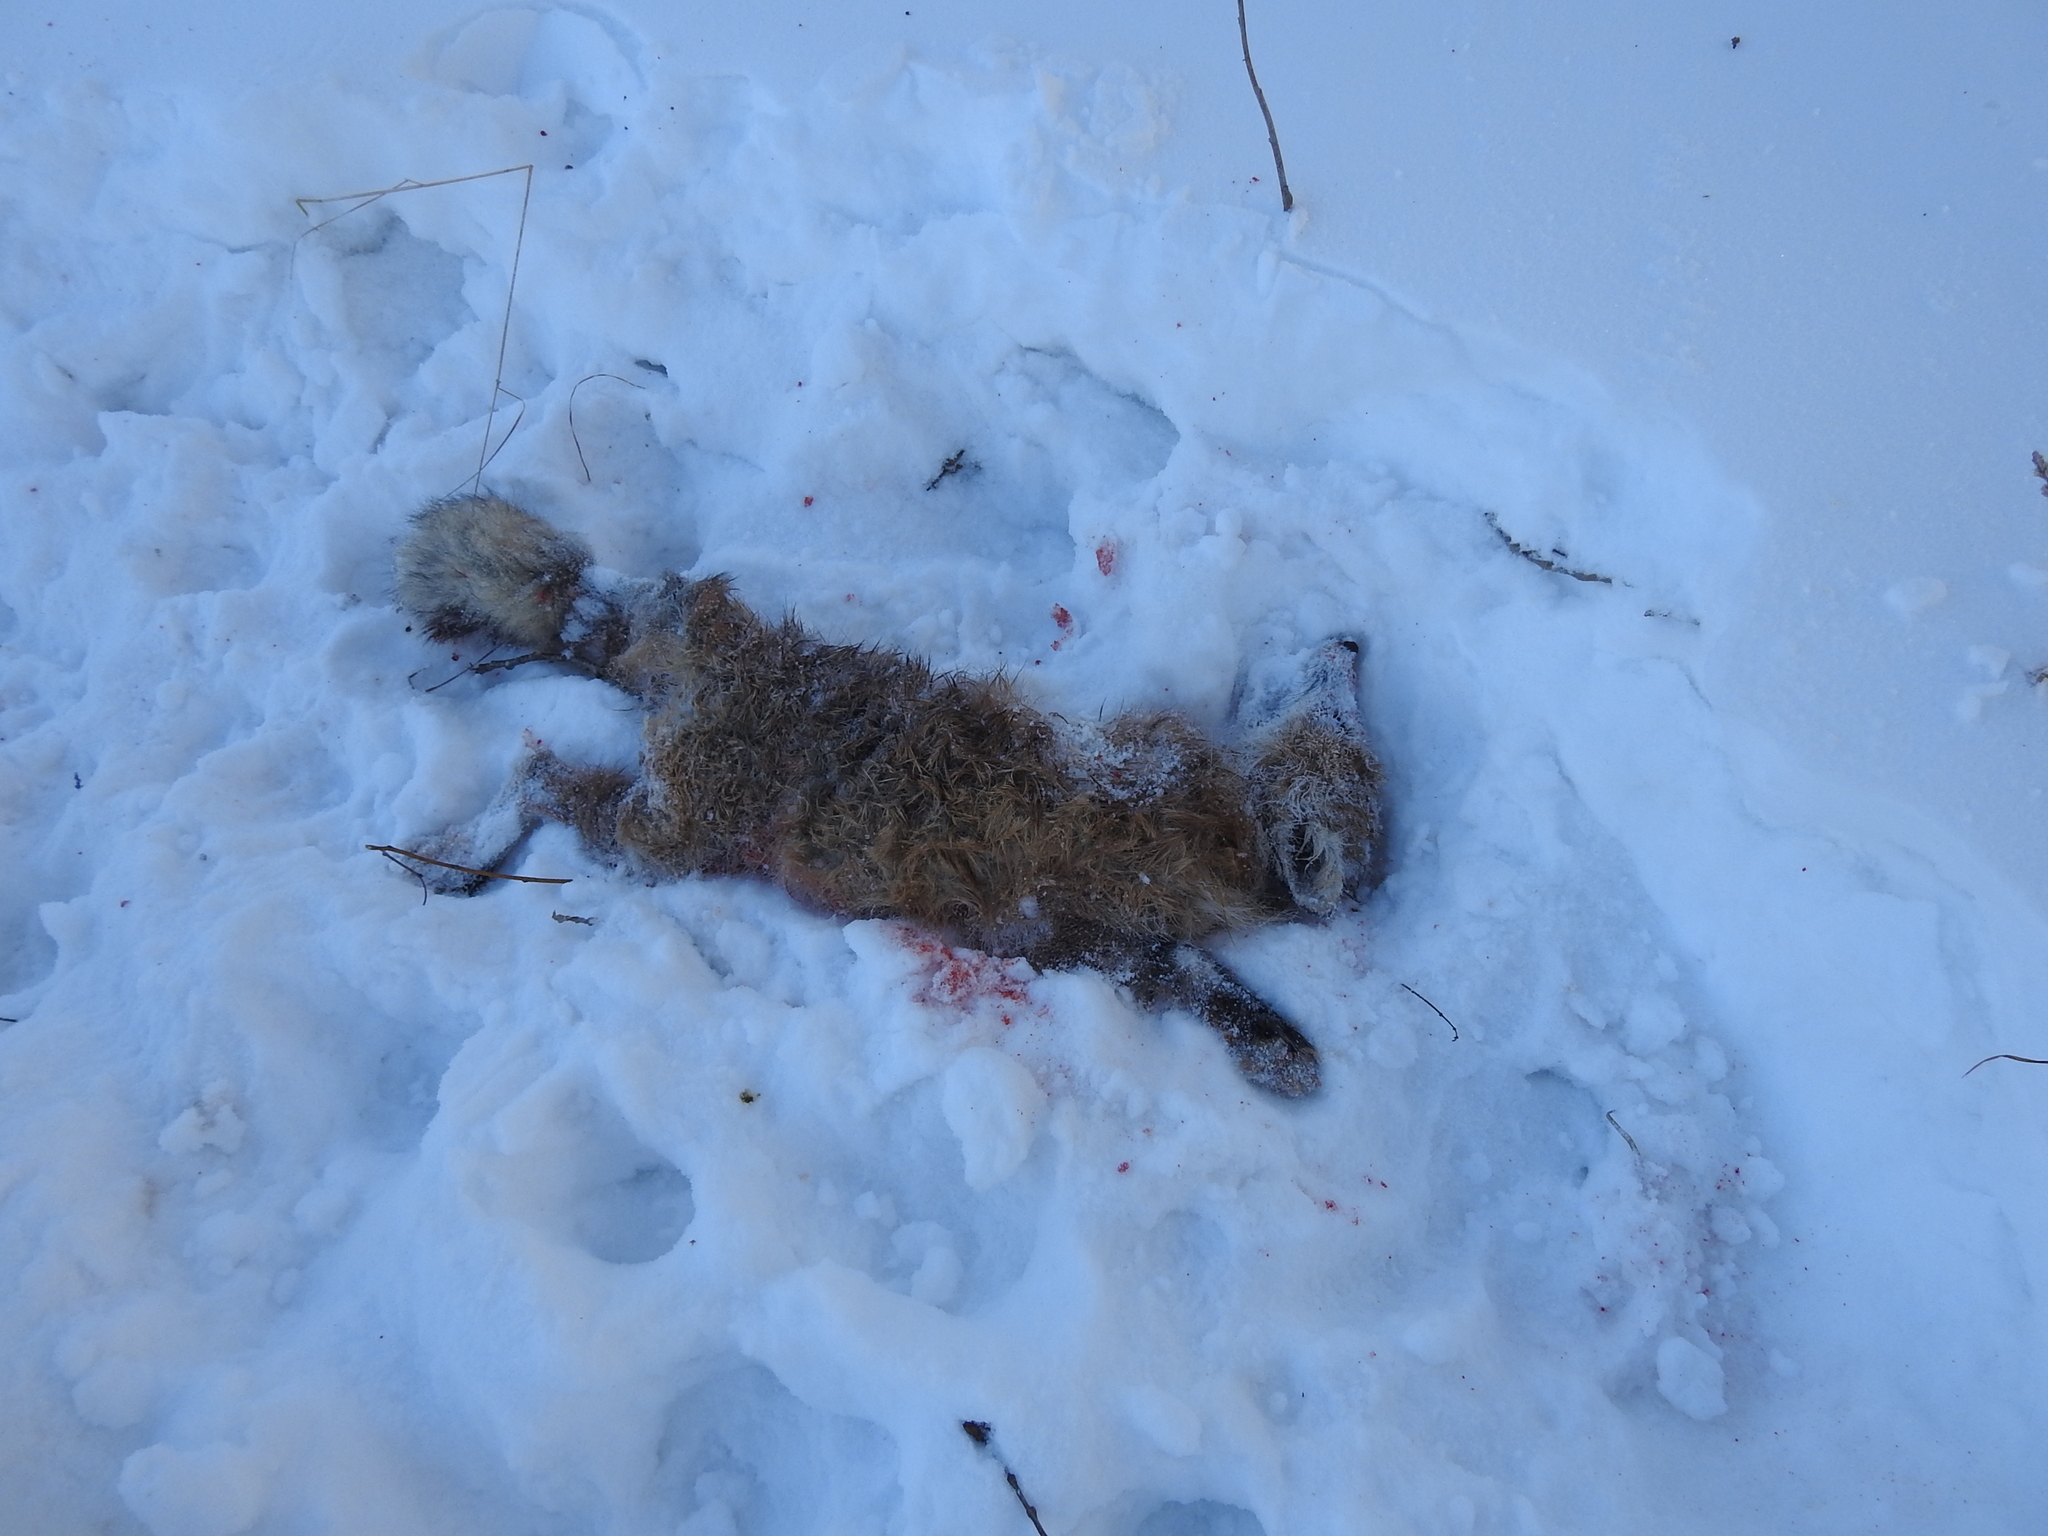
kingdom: Animalia
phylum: Chordata
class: Mammalia
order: Carnivora
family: Canidae
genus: Vulpes
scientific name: Vulpes vulpes
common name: Red fox
